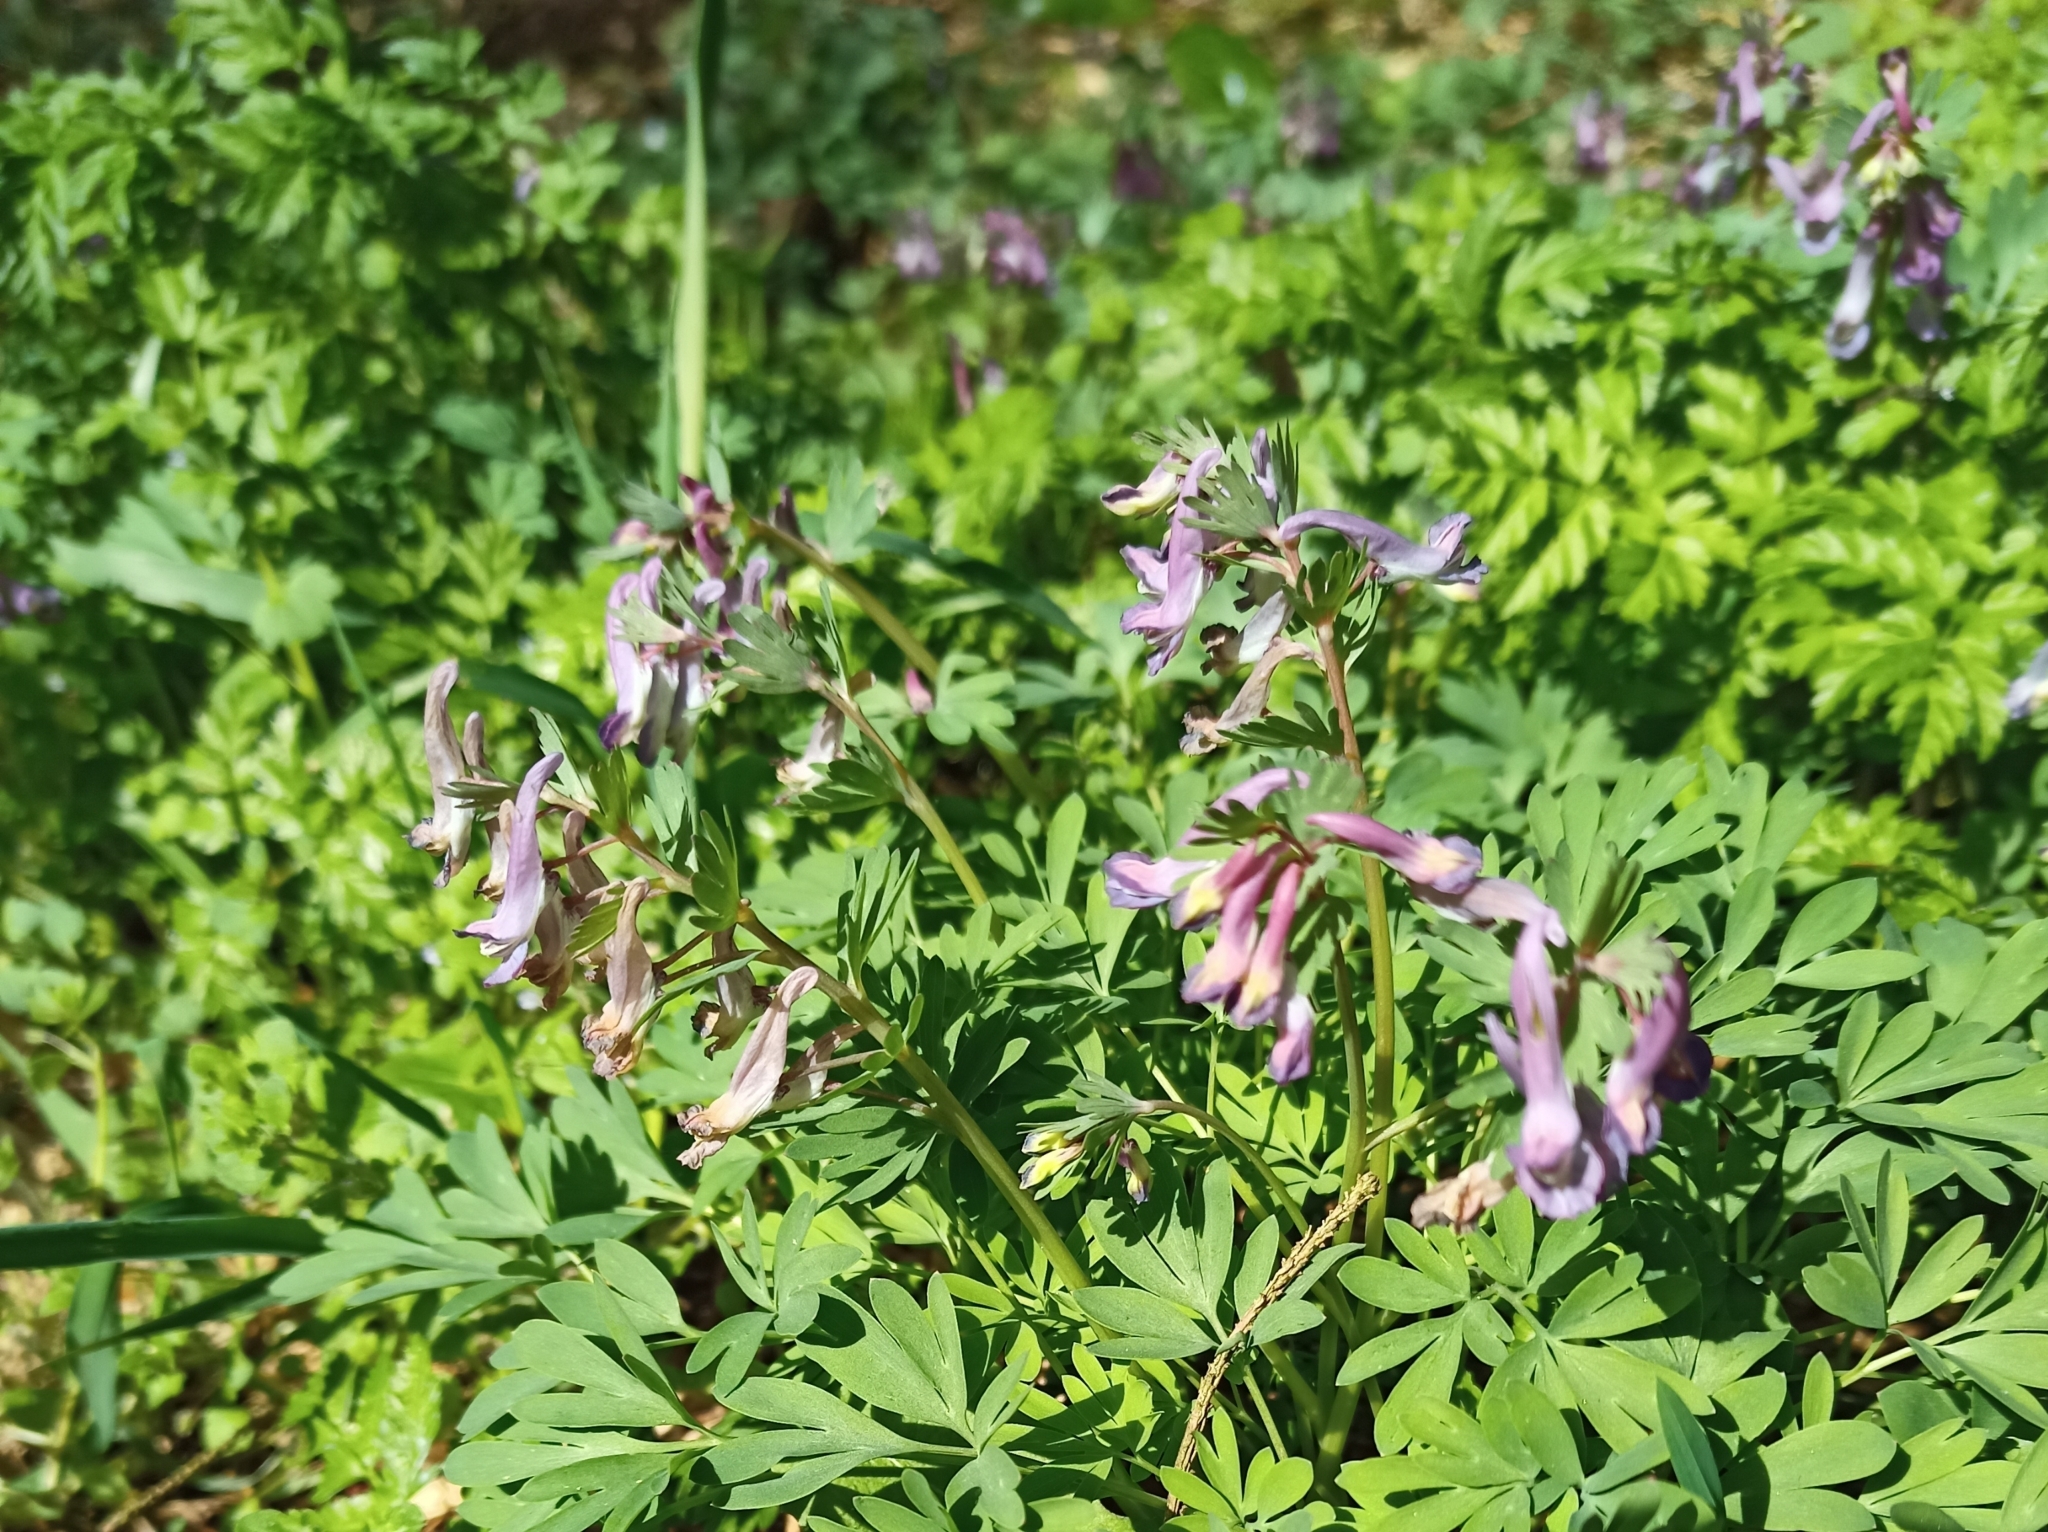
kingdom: Plantae
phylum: Tracheophyta
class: Magnoliopsida
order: Ranunculales
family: Papaveraceae
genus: Corydalis
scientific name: Corydalis solida
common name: Bird-in-a-bush
